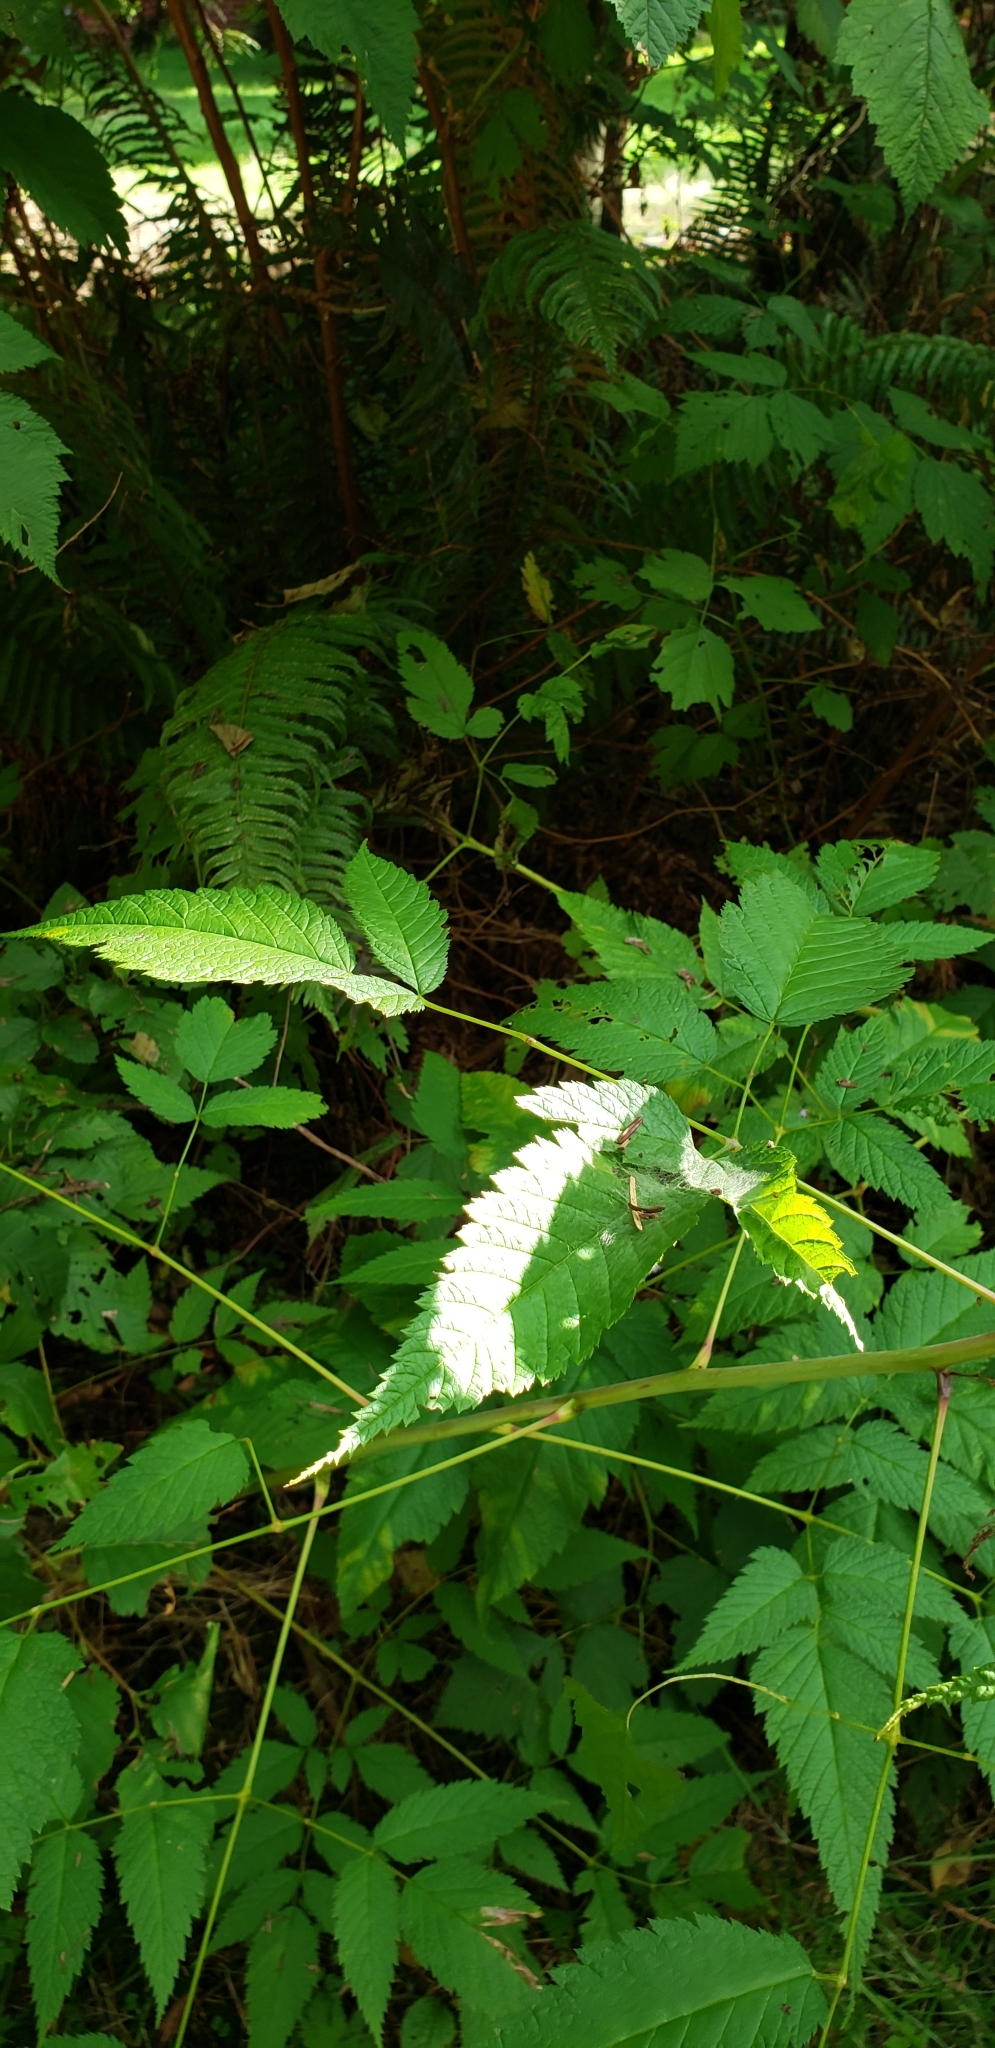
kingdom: Plantae
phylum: Tracheophyta
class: Magnoliopsida
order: Rosales
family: Rosaceae
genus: Aruncus
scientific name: Aruncus dioicus
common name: Buck's-beard
